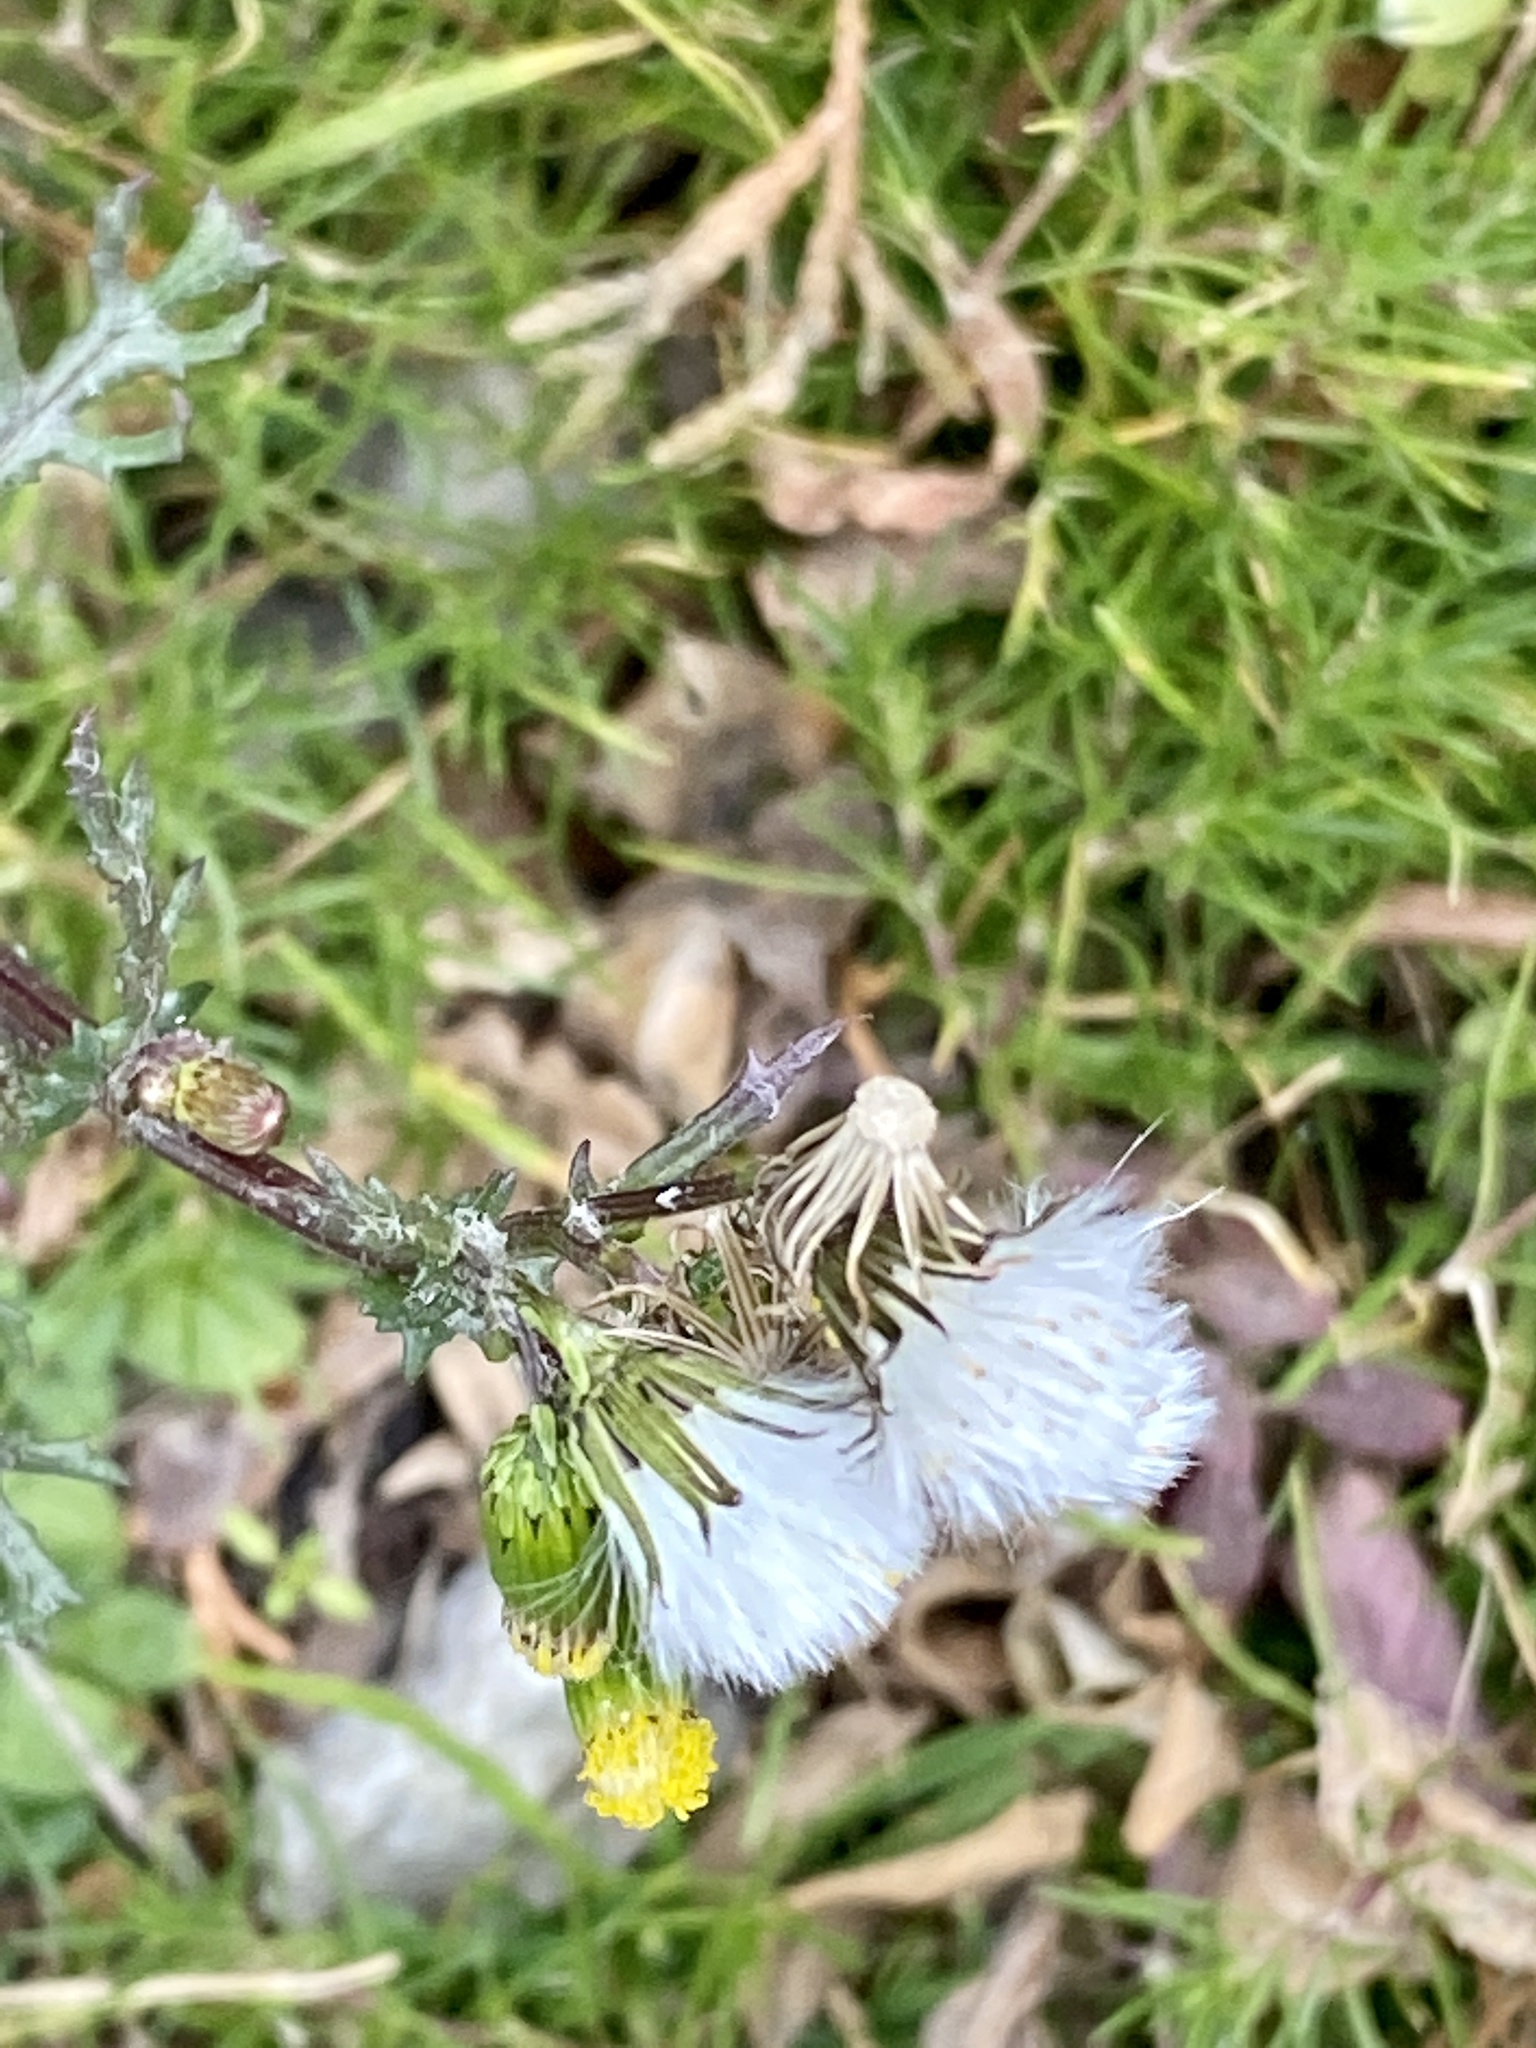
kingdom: Plantae
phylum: Tracheophyta
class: Magnoliopsida
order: Asterales
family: Asteraceae
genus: Senecio
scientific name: Senecio vulgaris
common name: Old-man-in-the-spring
